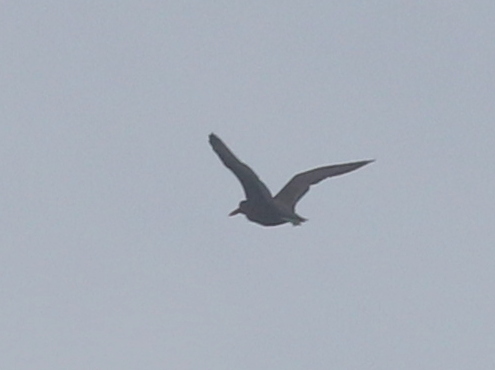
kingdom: Animalia
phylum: Chordata
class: Aves
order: Charadriiformes
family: Haematopodidae
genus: Haematopus
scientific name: Haematopus ater
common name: Blackish oystercatcher
